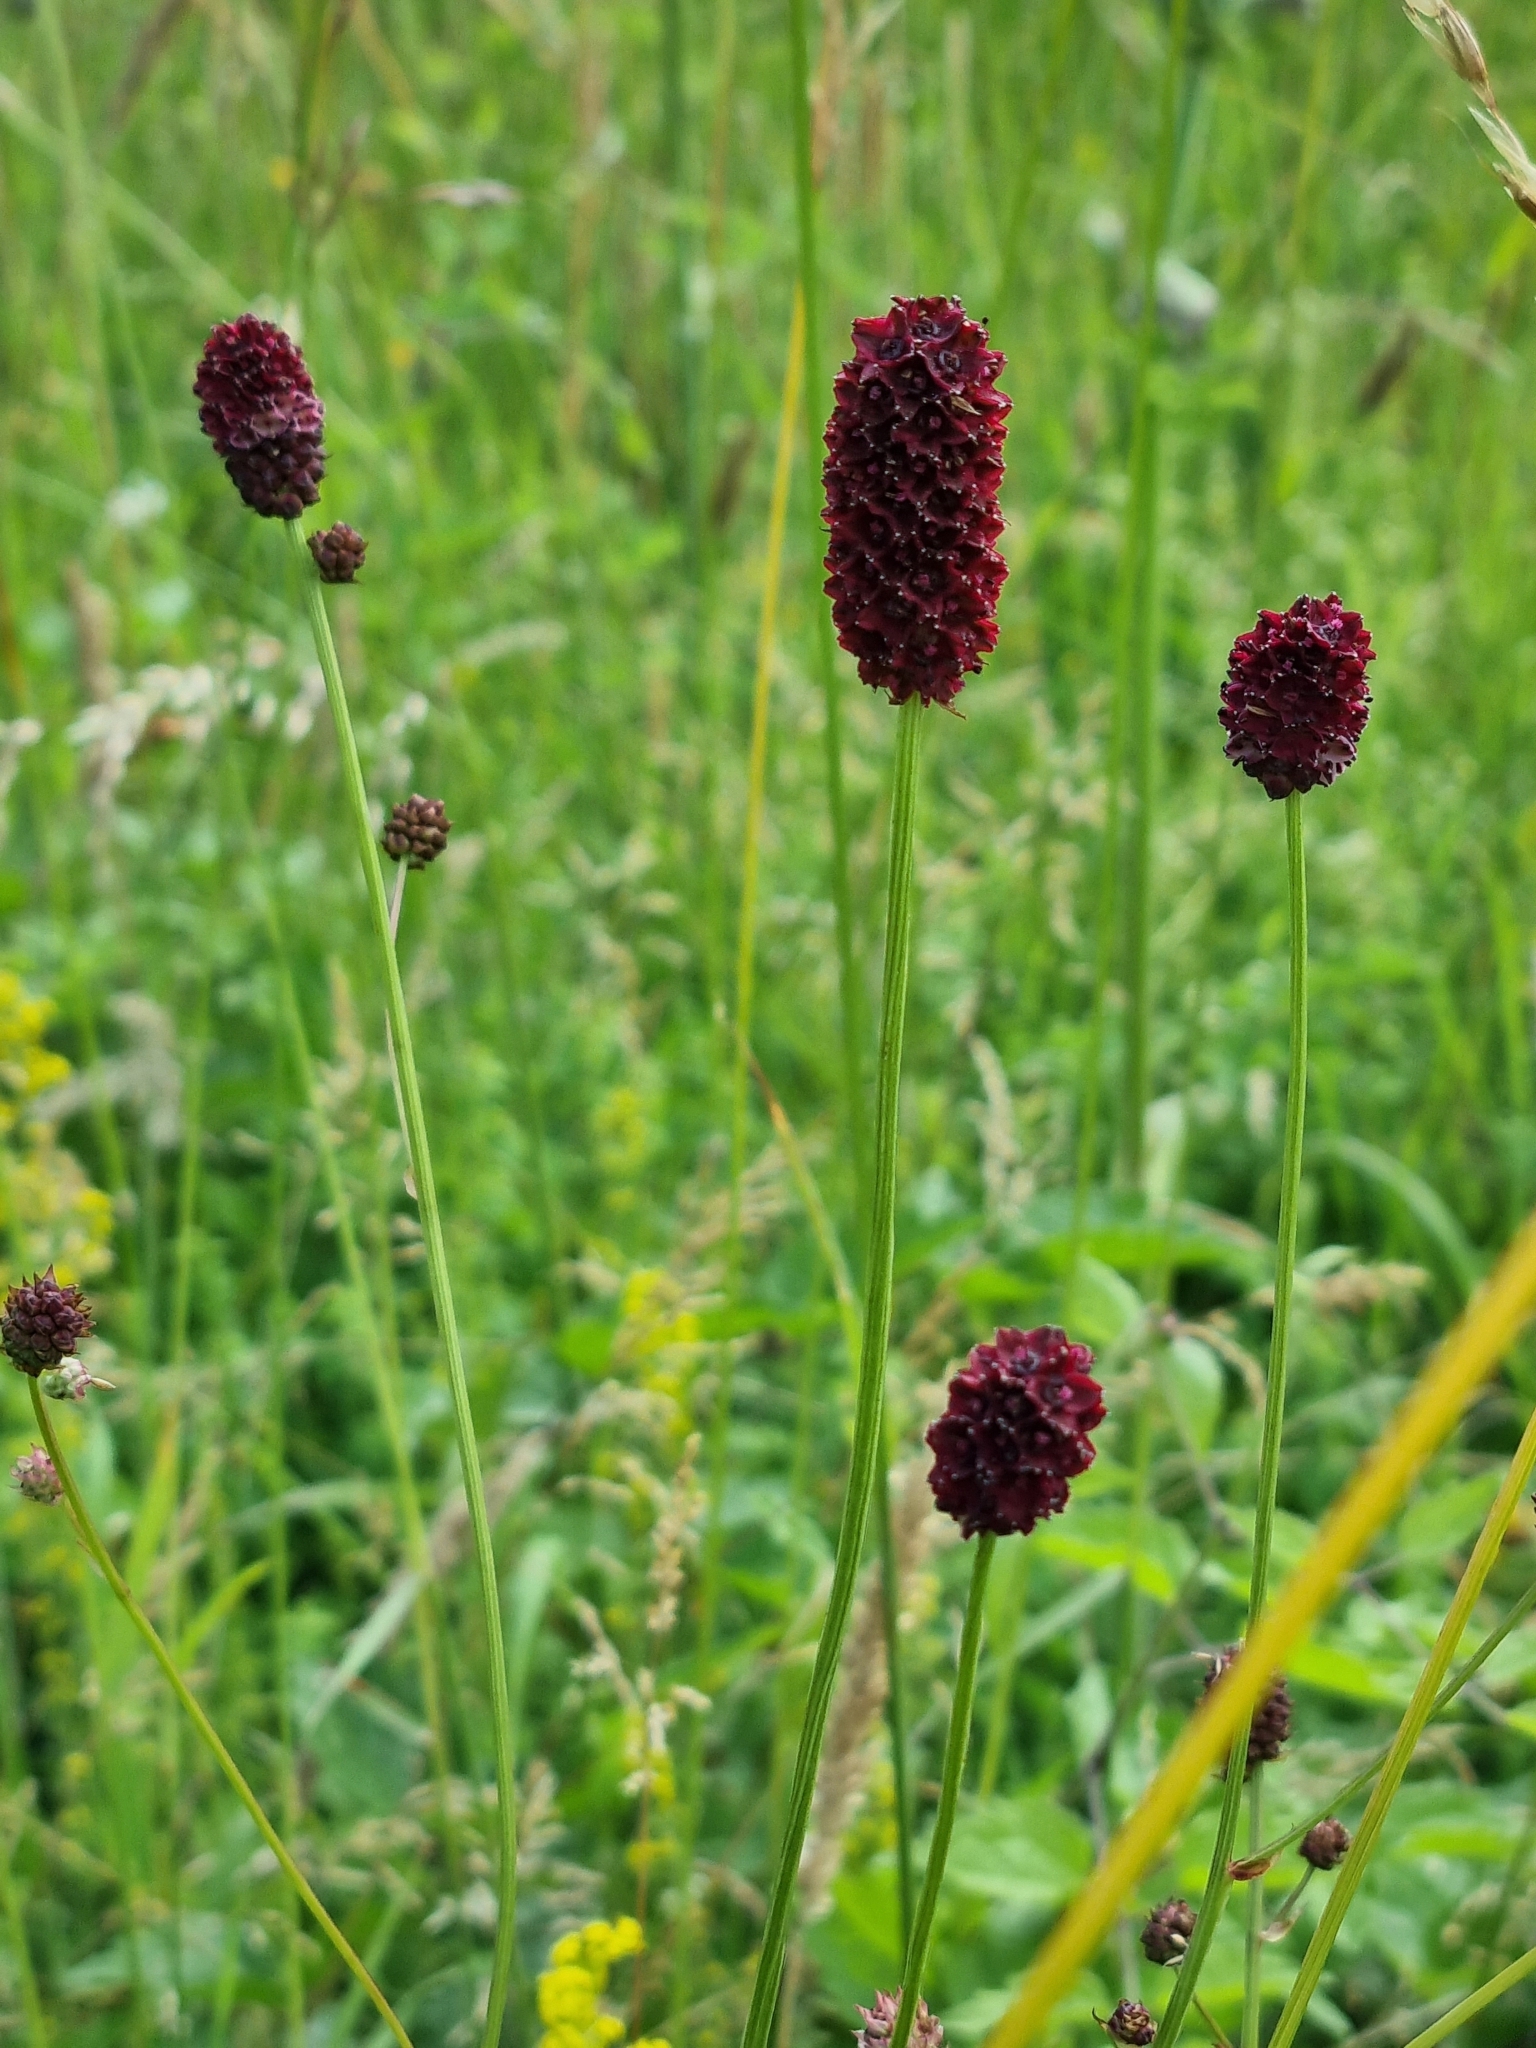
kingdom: Plantae
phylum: Tracheophyta
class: Magnoliopsida
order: Rosales
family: Rosaceae
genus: Sanguisorba
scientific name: Sanguisorba officinalis
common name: Great burnet
